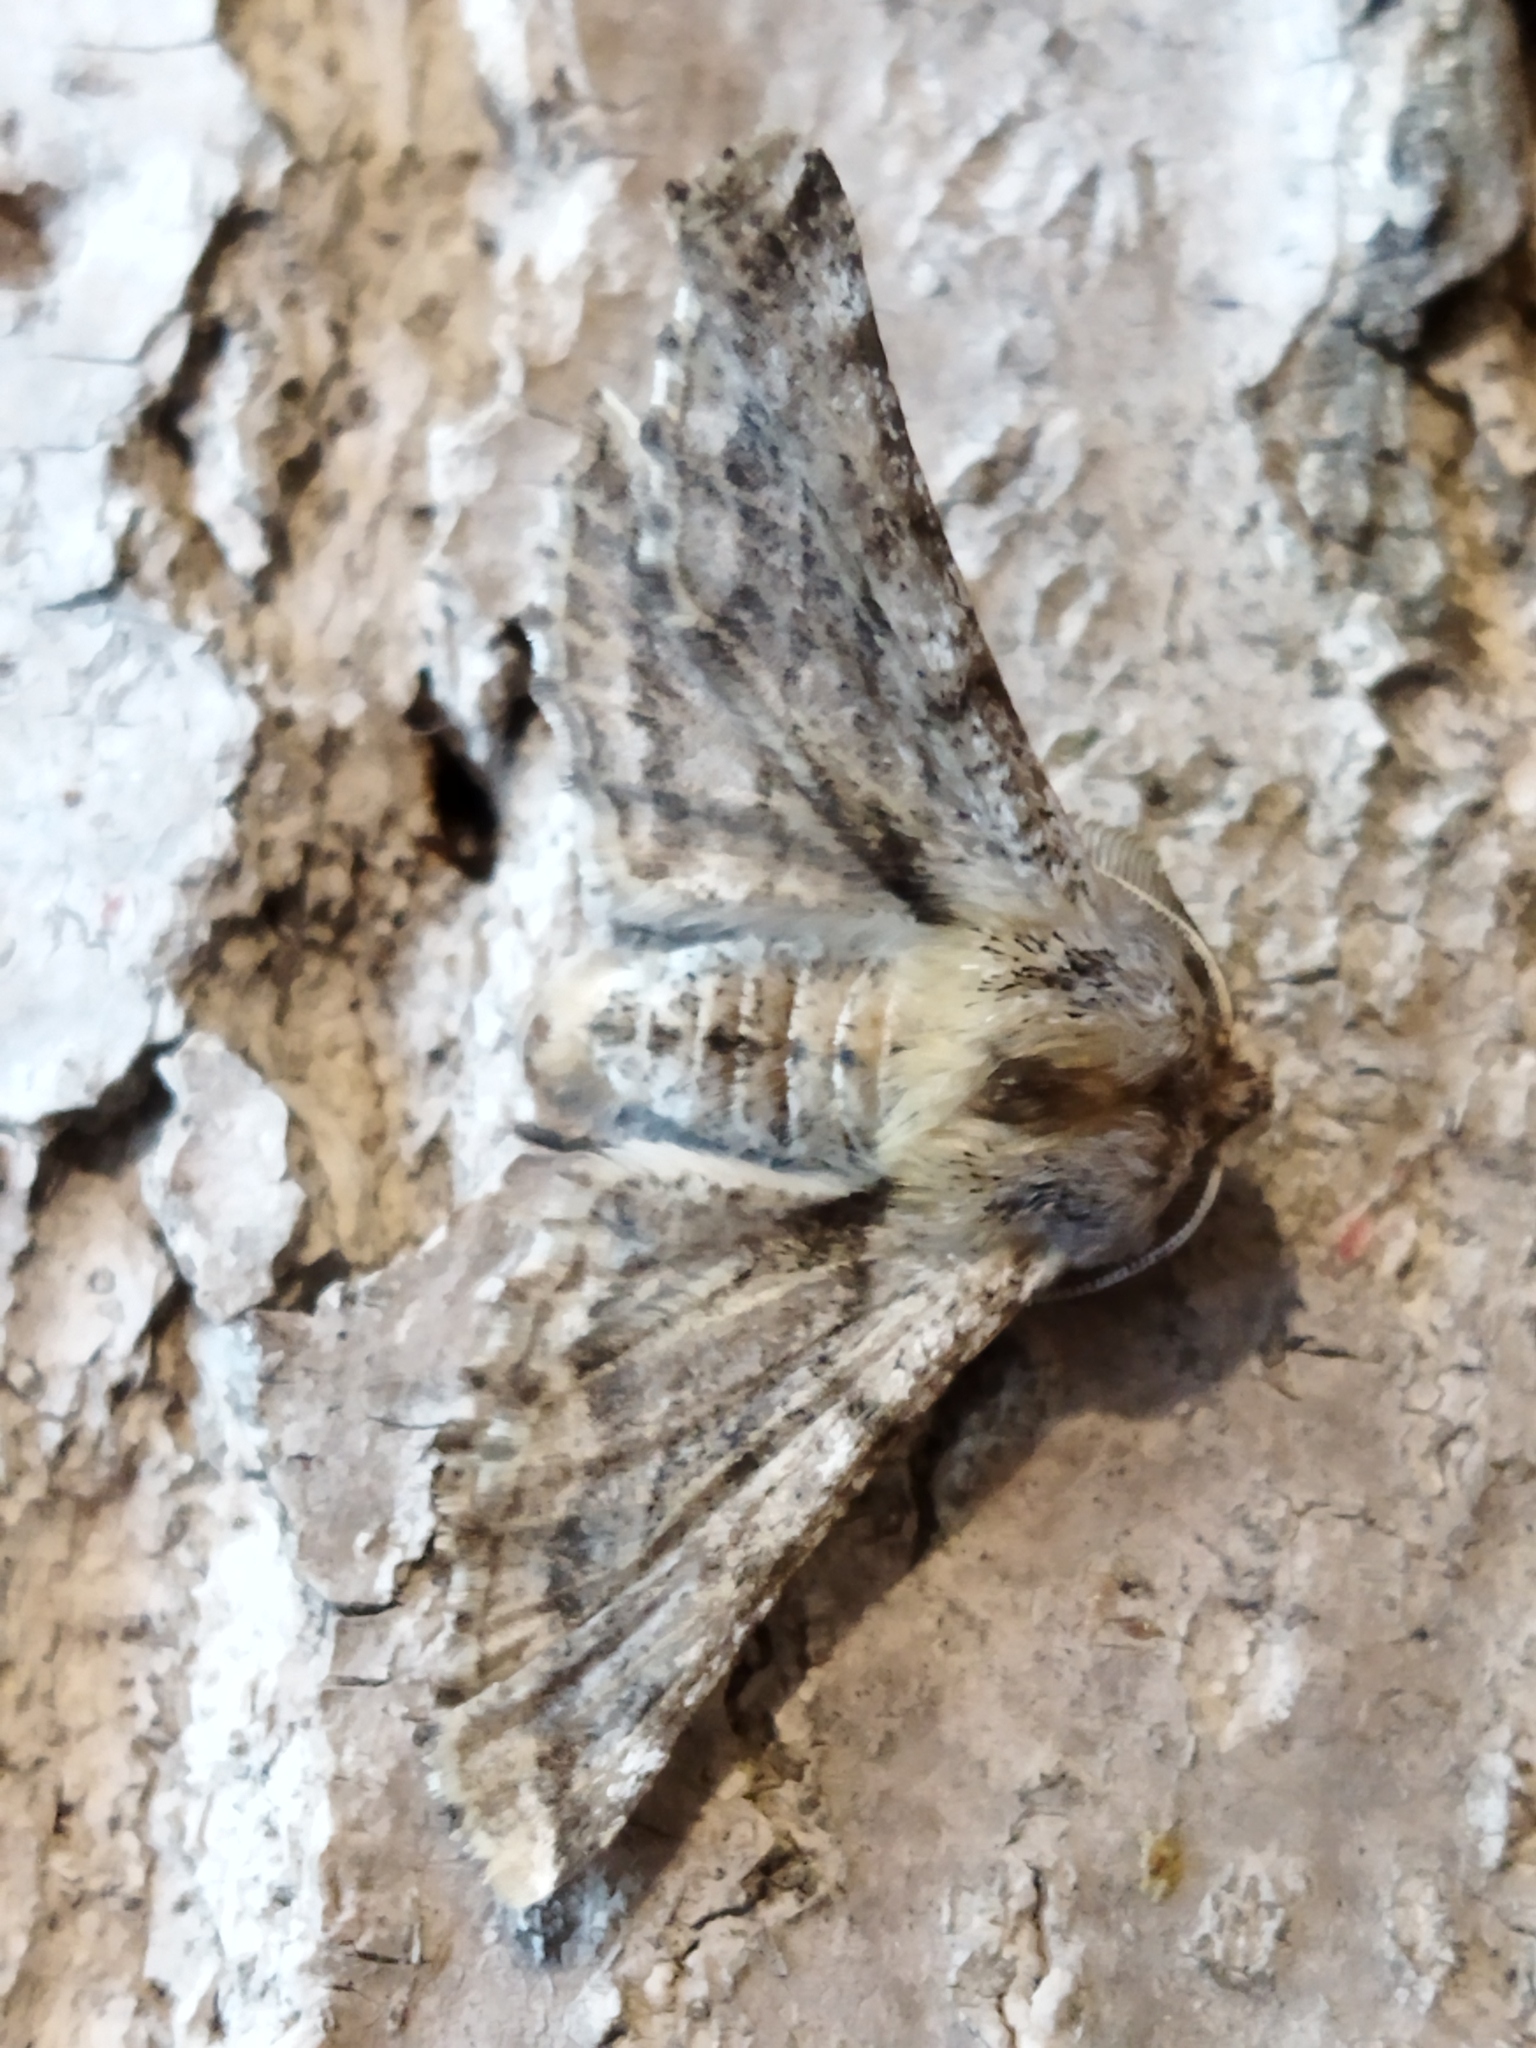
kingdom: Animalia
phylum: Arthropoda
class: Insecta
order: Lepidoptera
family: Geometridae
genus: Apochima
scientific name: Apochima flabellaria
